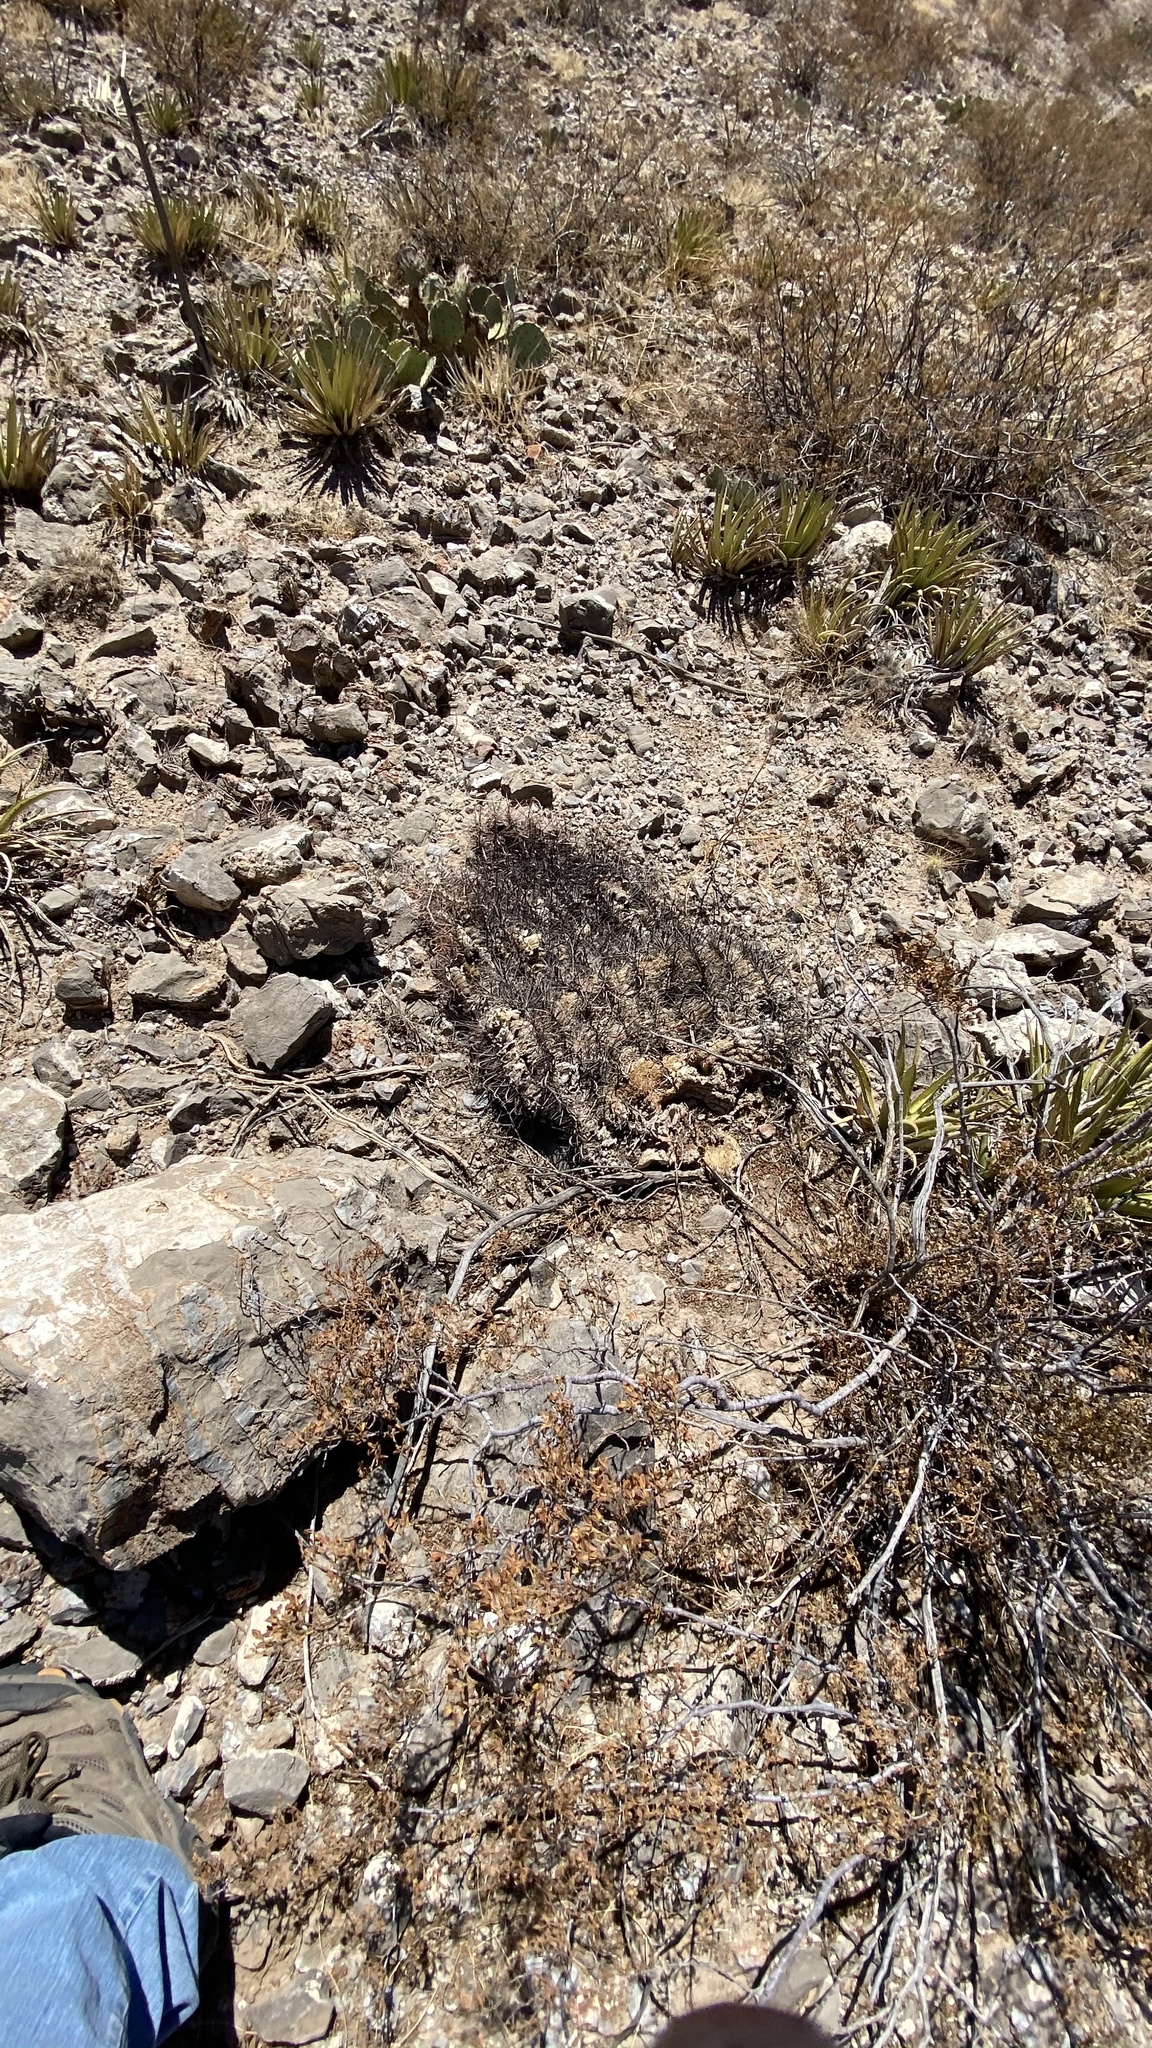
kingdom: Plantae
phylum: Tracheophyta
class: Magnoliopsida
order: Caryophyllales
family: Cactaceae
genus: Ferocactus
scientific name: Ferocactus wislizeni
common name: Candy barrel cactus
